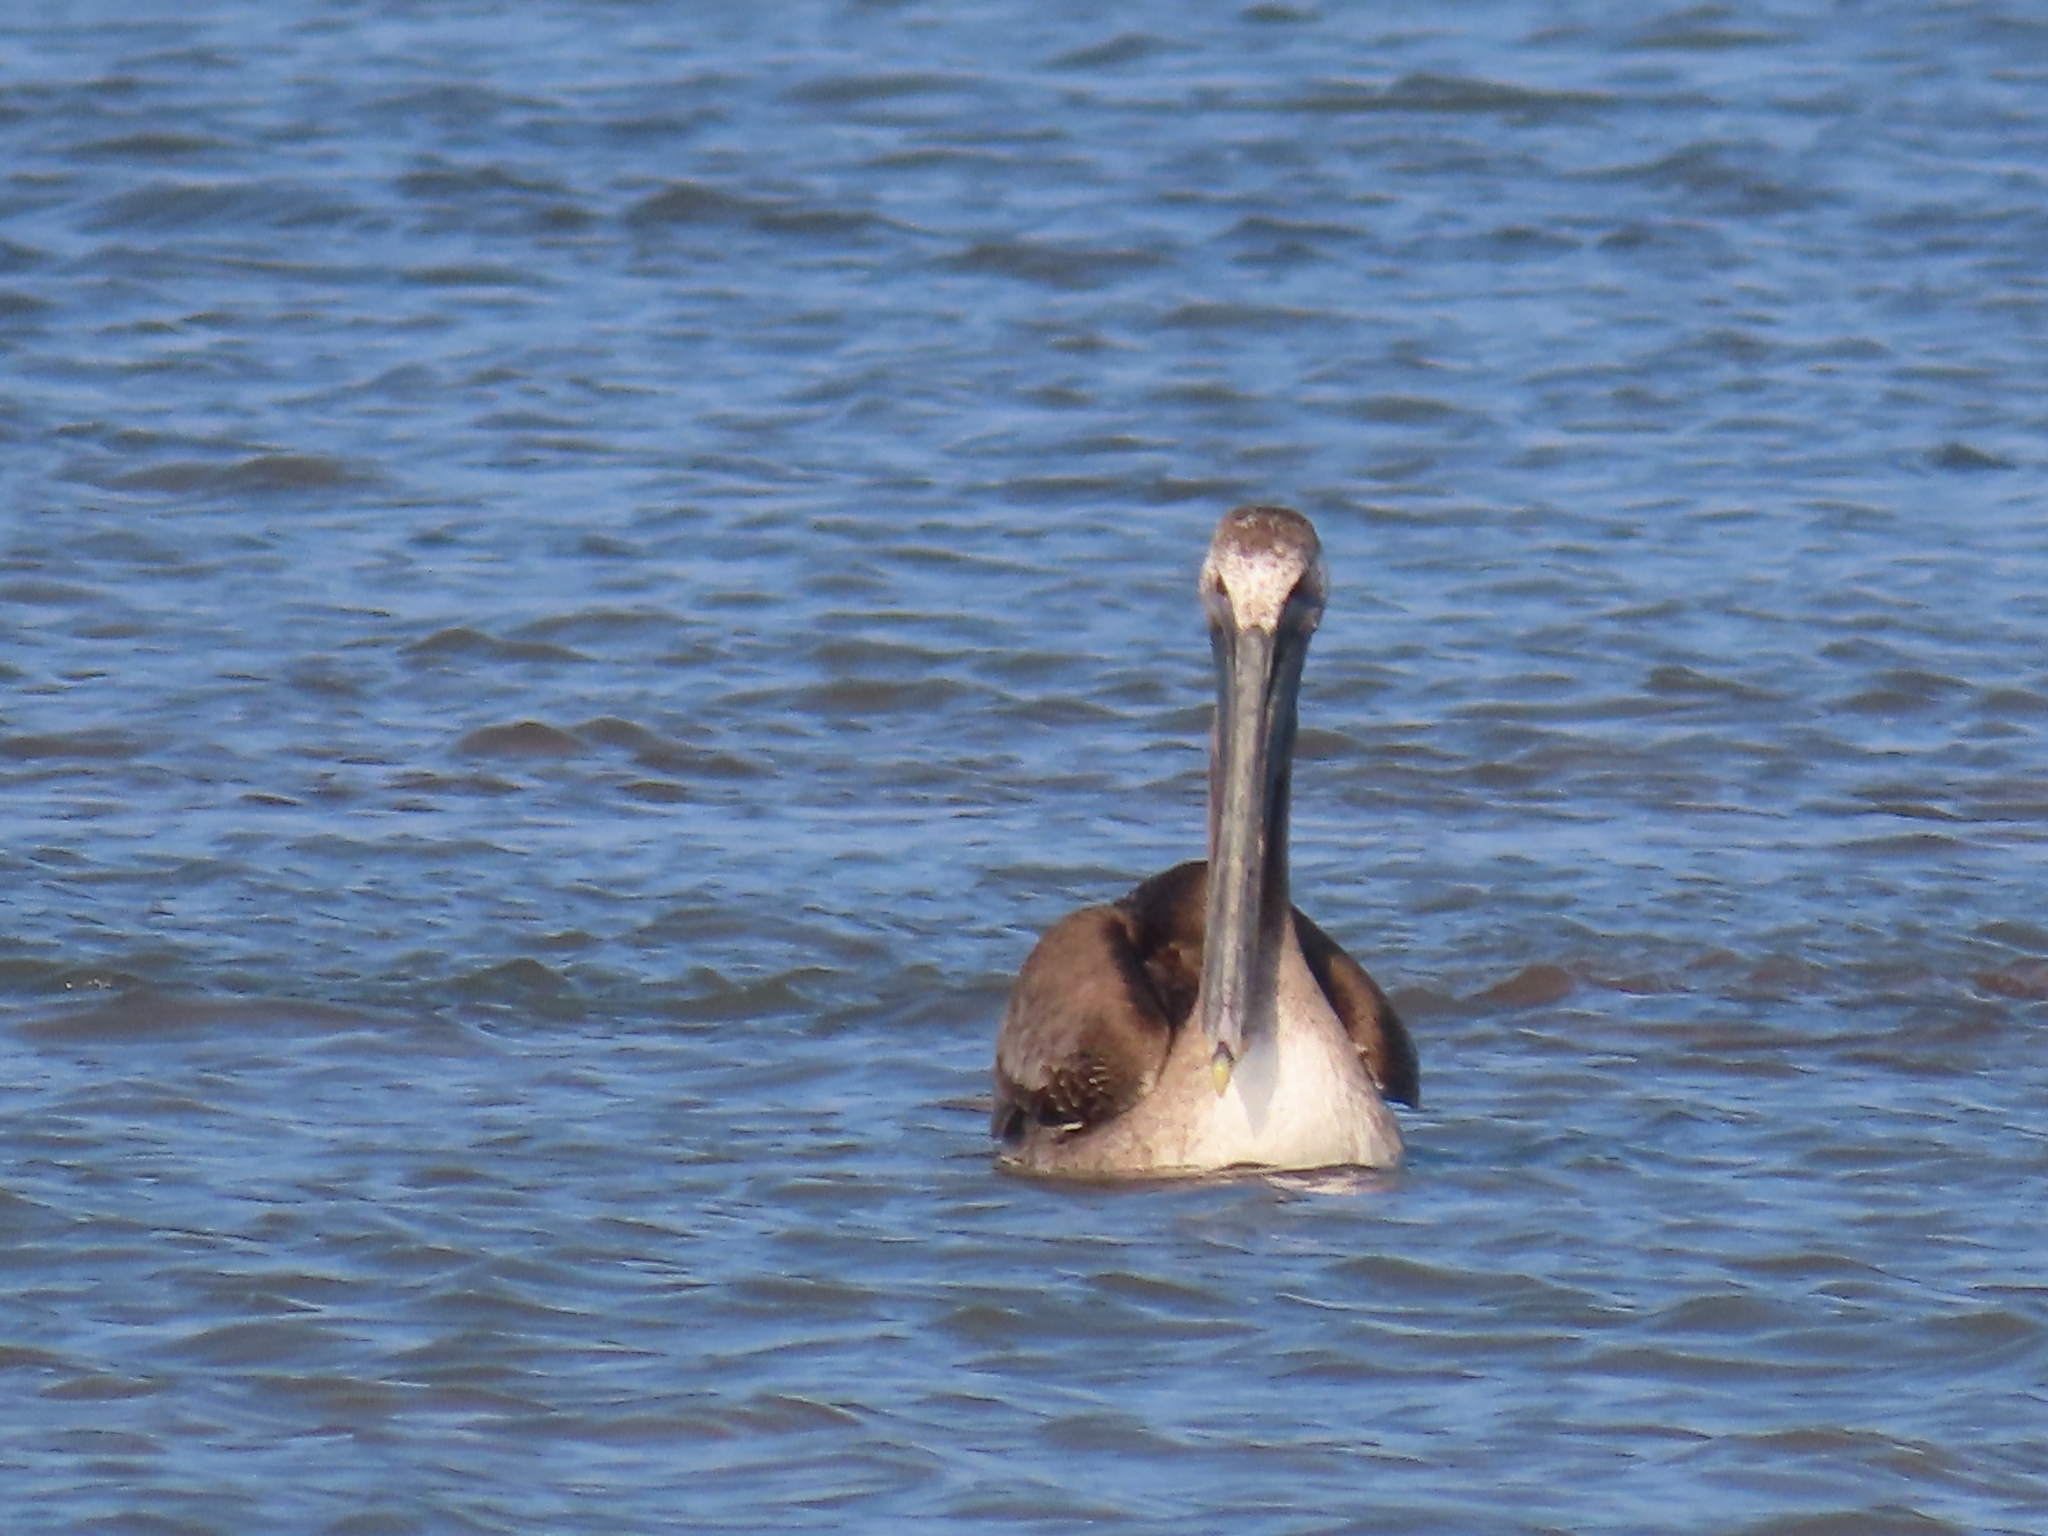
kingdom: Animalia
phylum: Chordata
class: Aves
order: Pelecaniformes
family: Pelecanidae
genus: Pelecanus
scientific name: Pelecanus occidentalis
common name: Brown pelican
